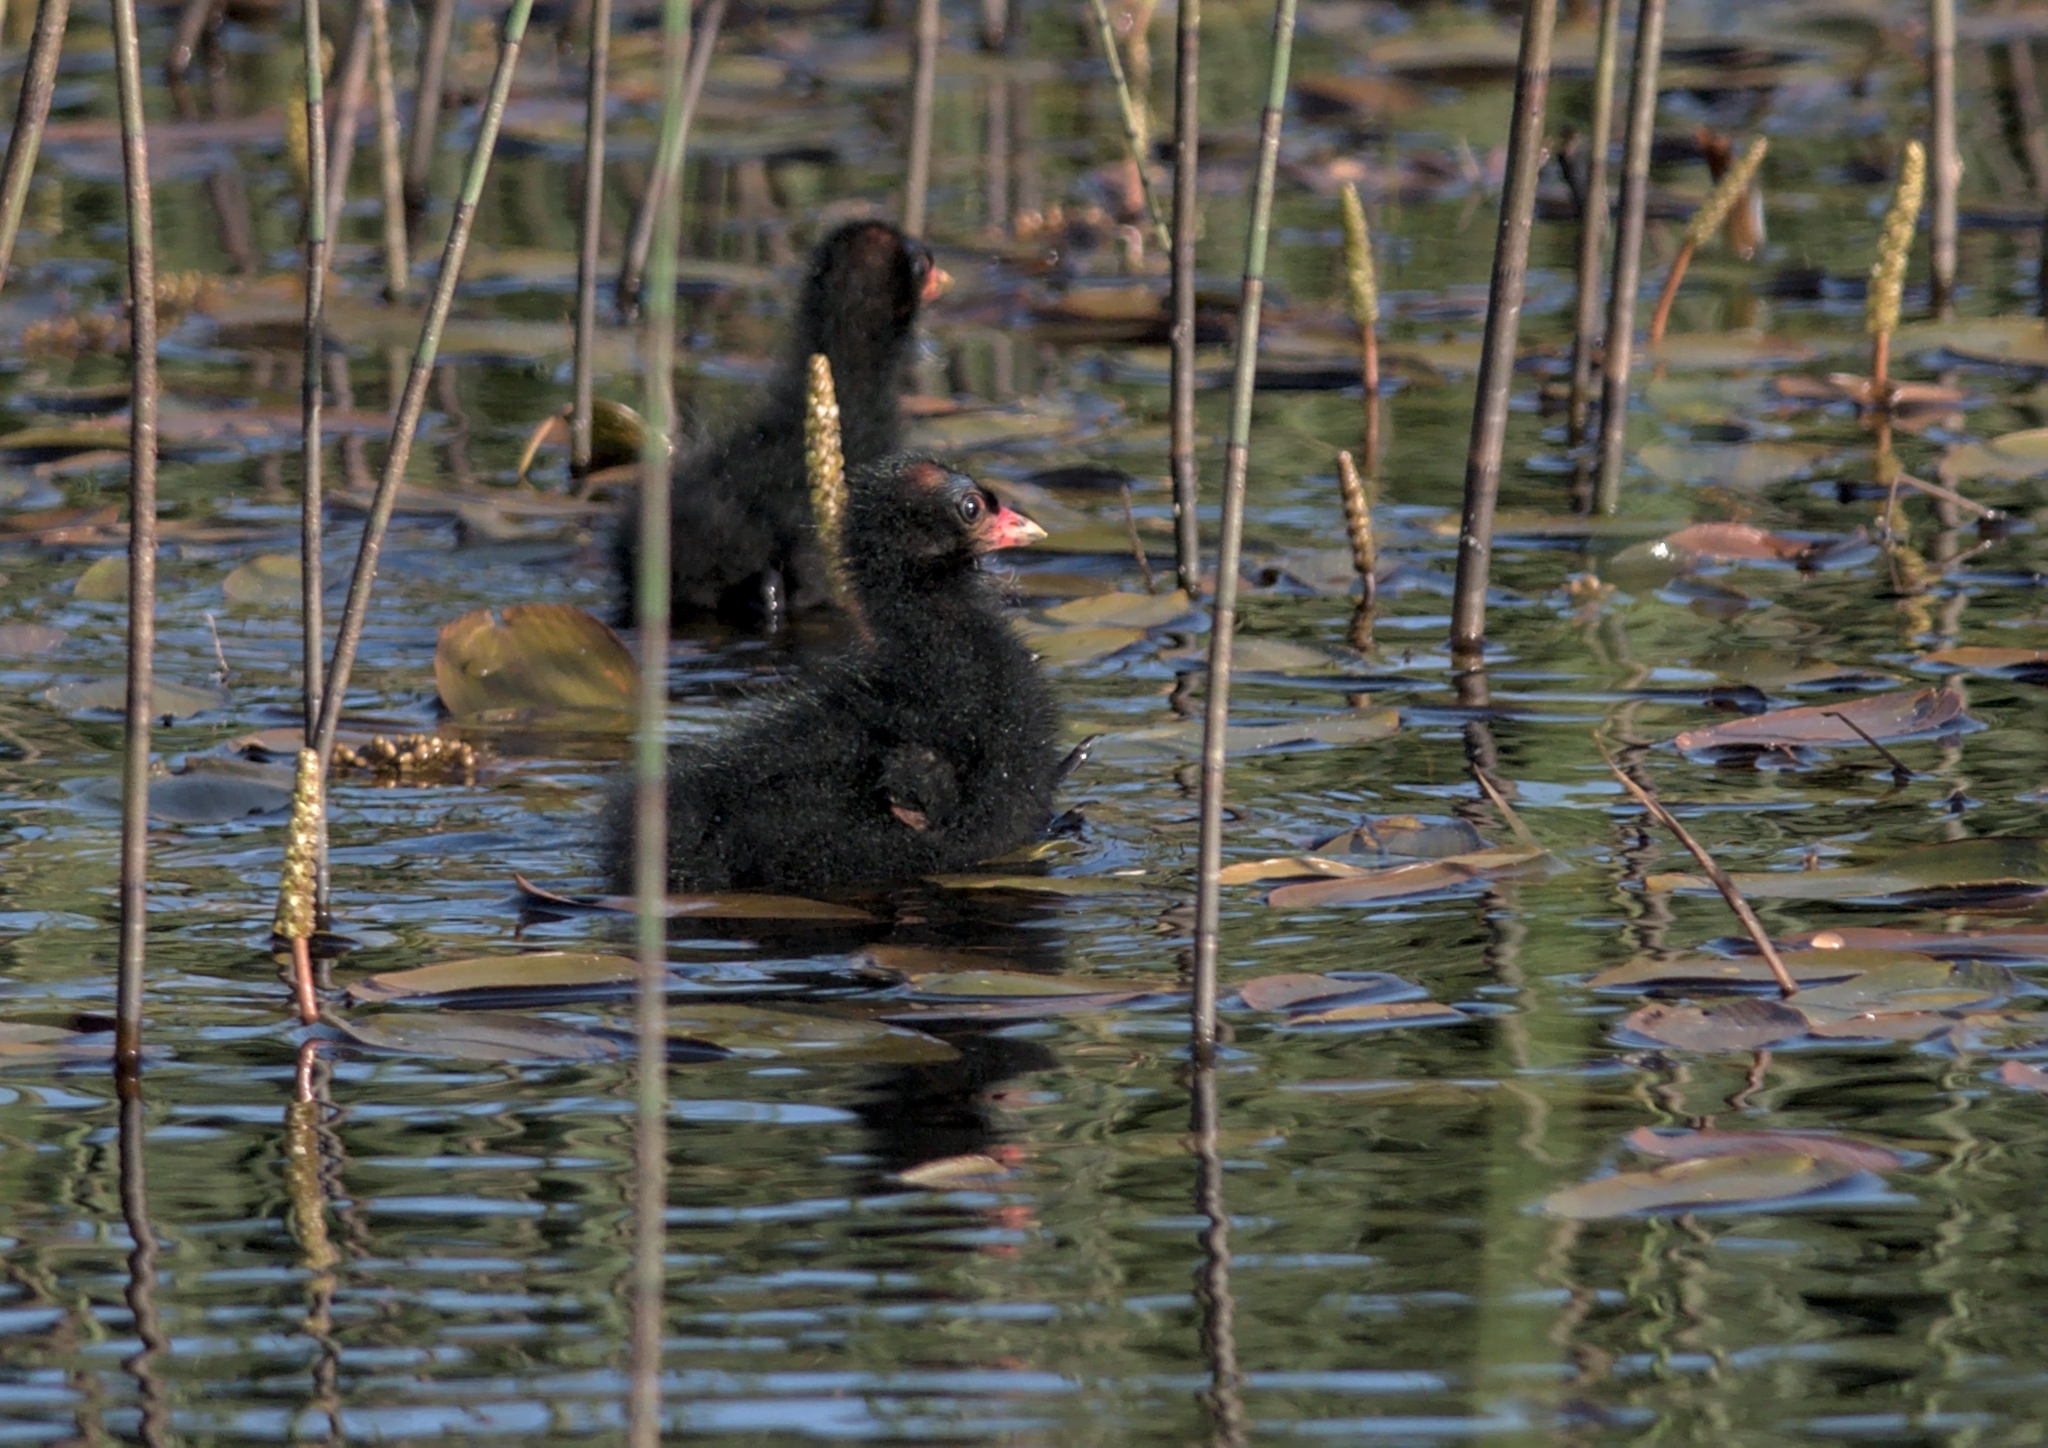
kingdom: Animalia
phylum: Chordata
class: Aves
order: Gruiformes
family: Rallidae
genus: Gallinula
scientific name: Gallinula chloropus
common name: Common moorhen
